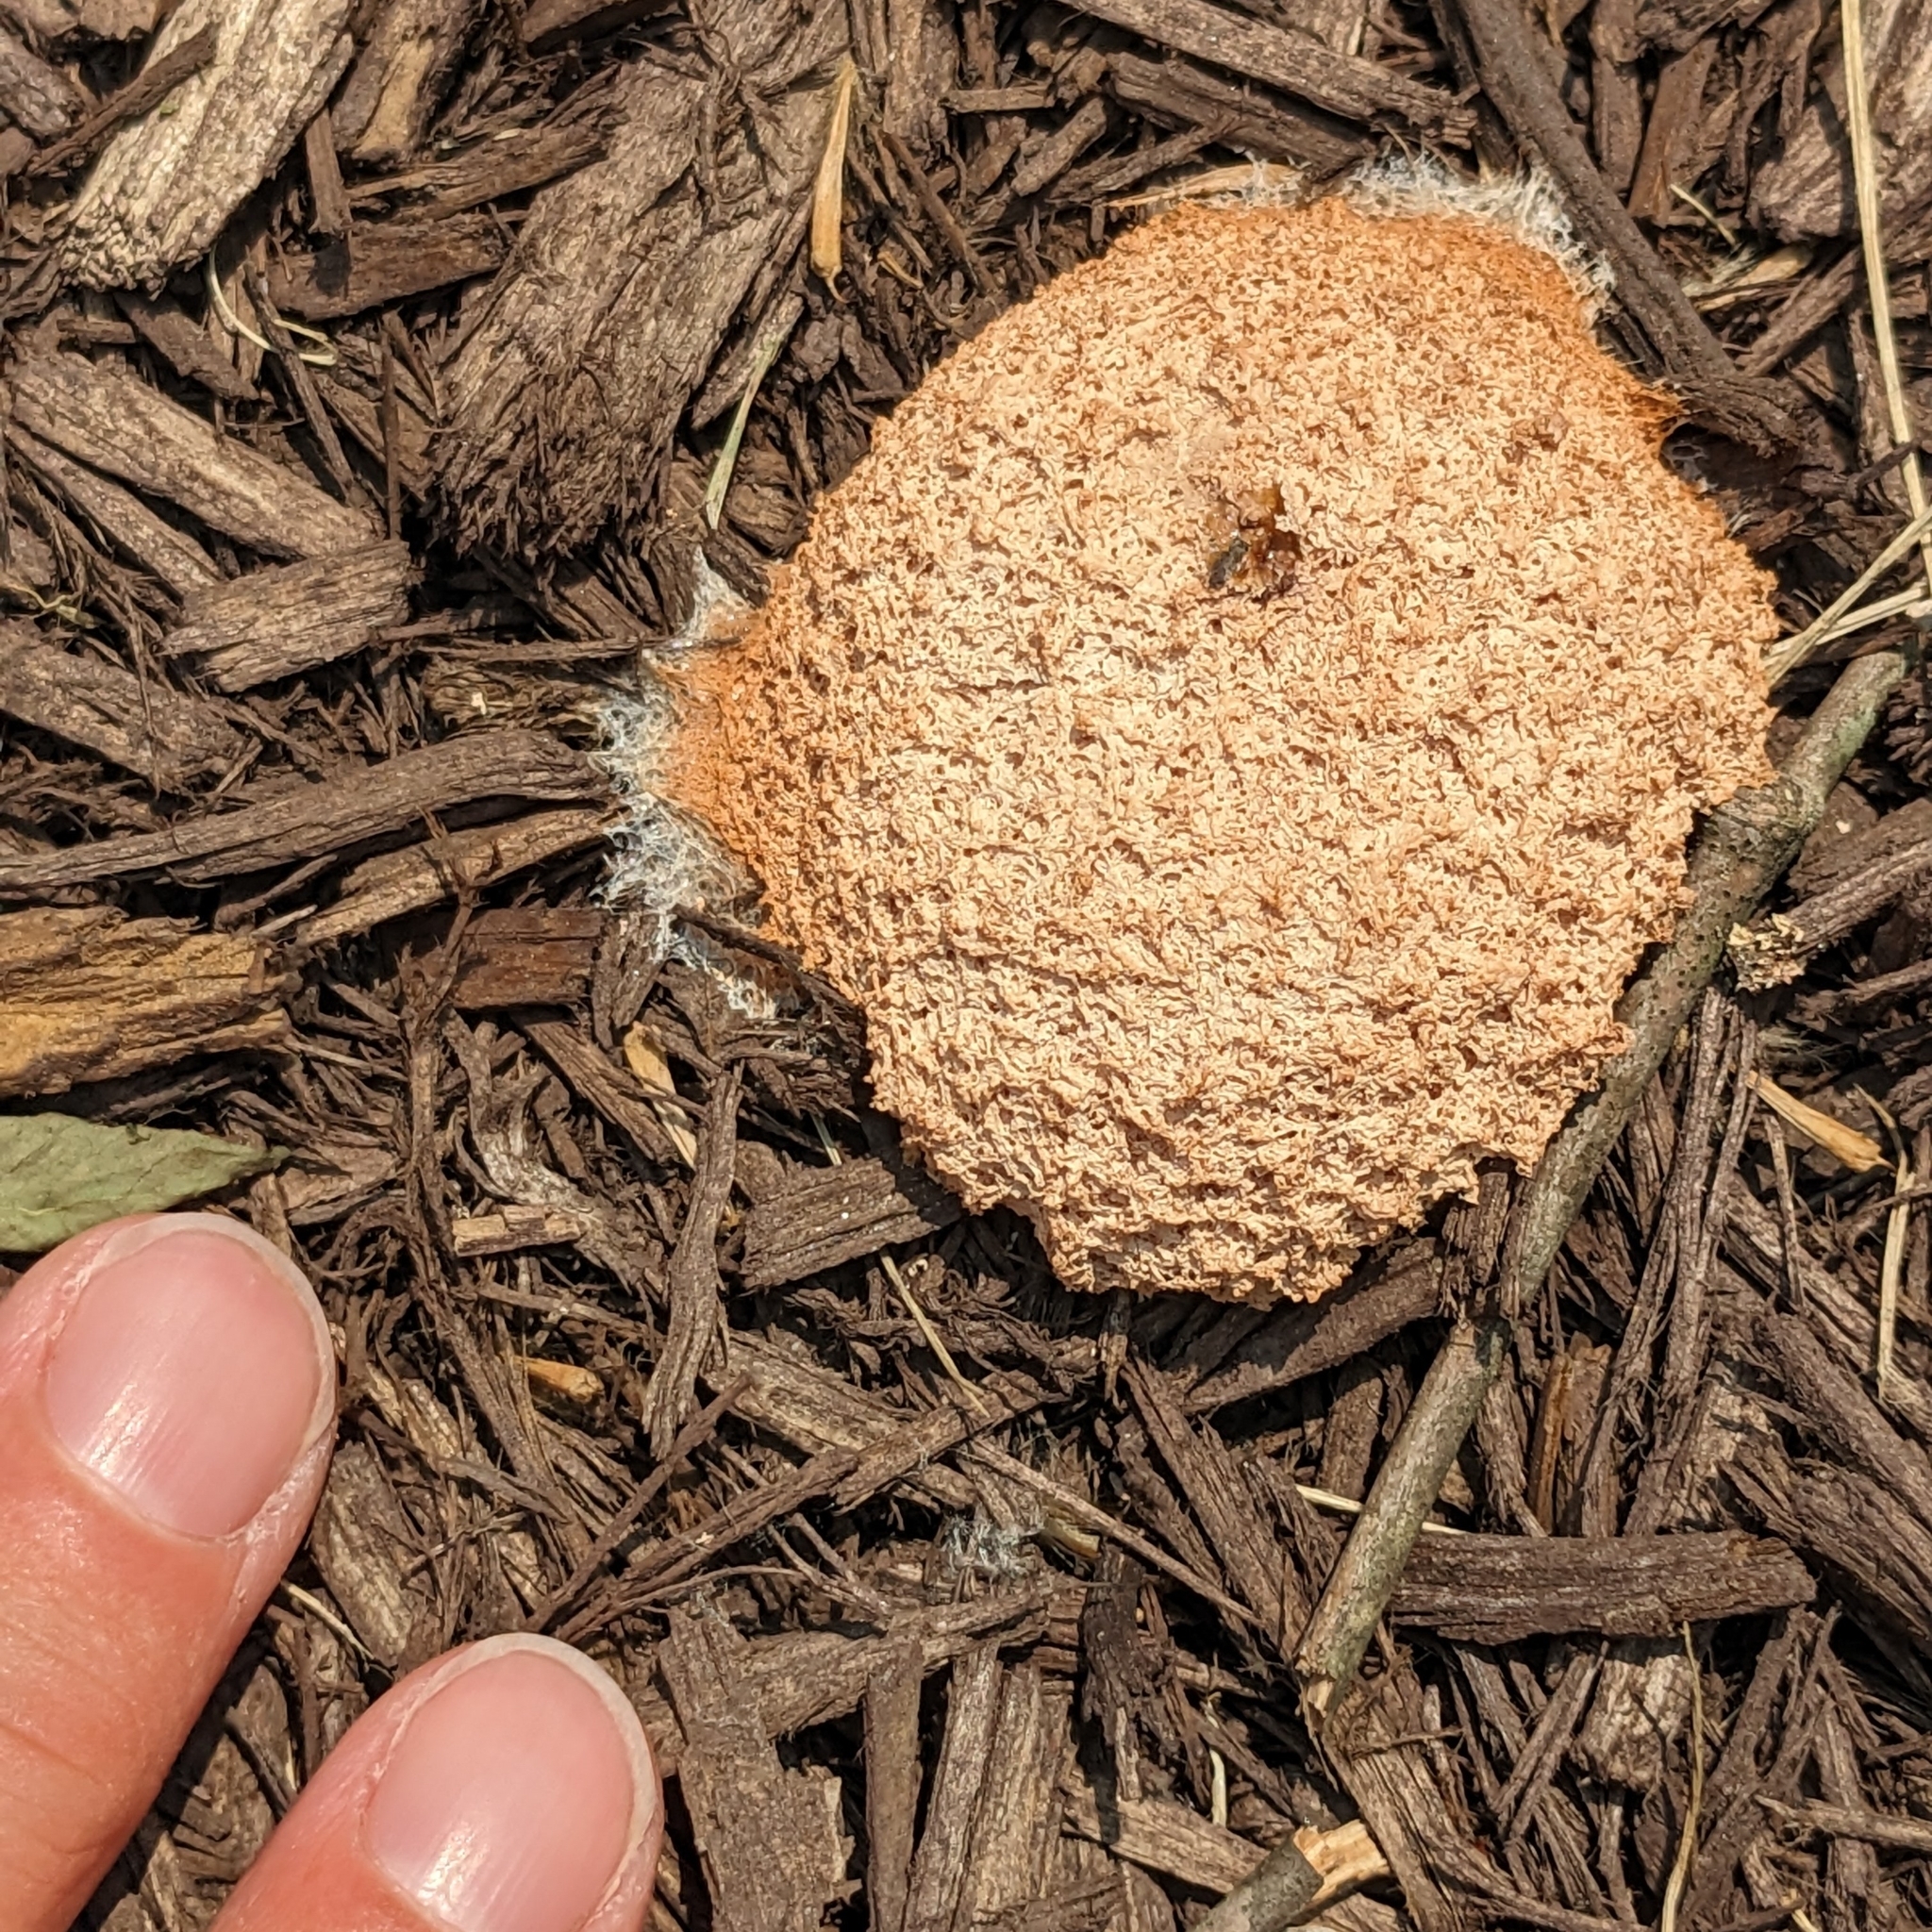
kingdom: Protozoa
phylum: Mycetozoa
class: Myxomycetes
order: Physarales
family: Physaraceae
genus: Fuligo
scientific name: Fuligo septica
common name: Dog vomit slime mold
